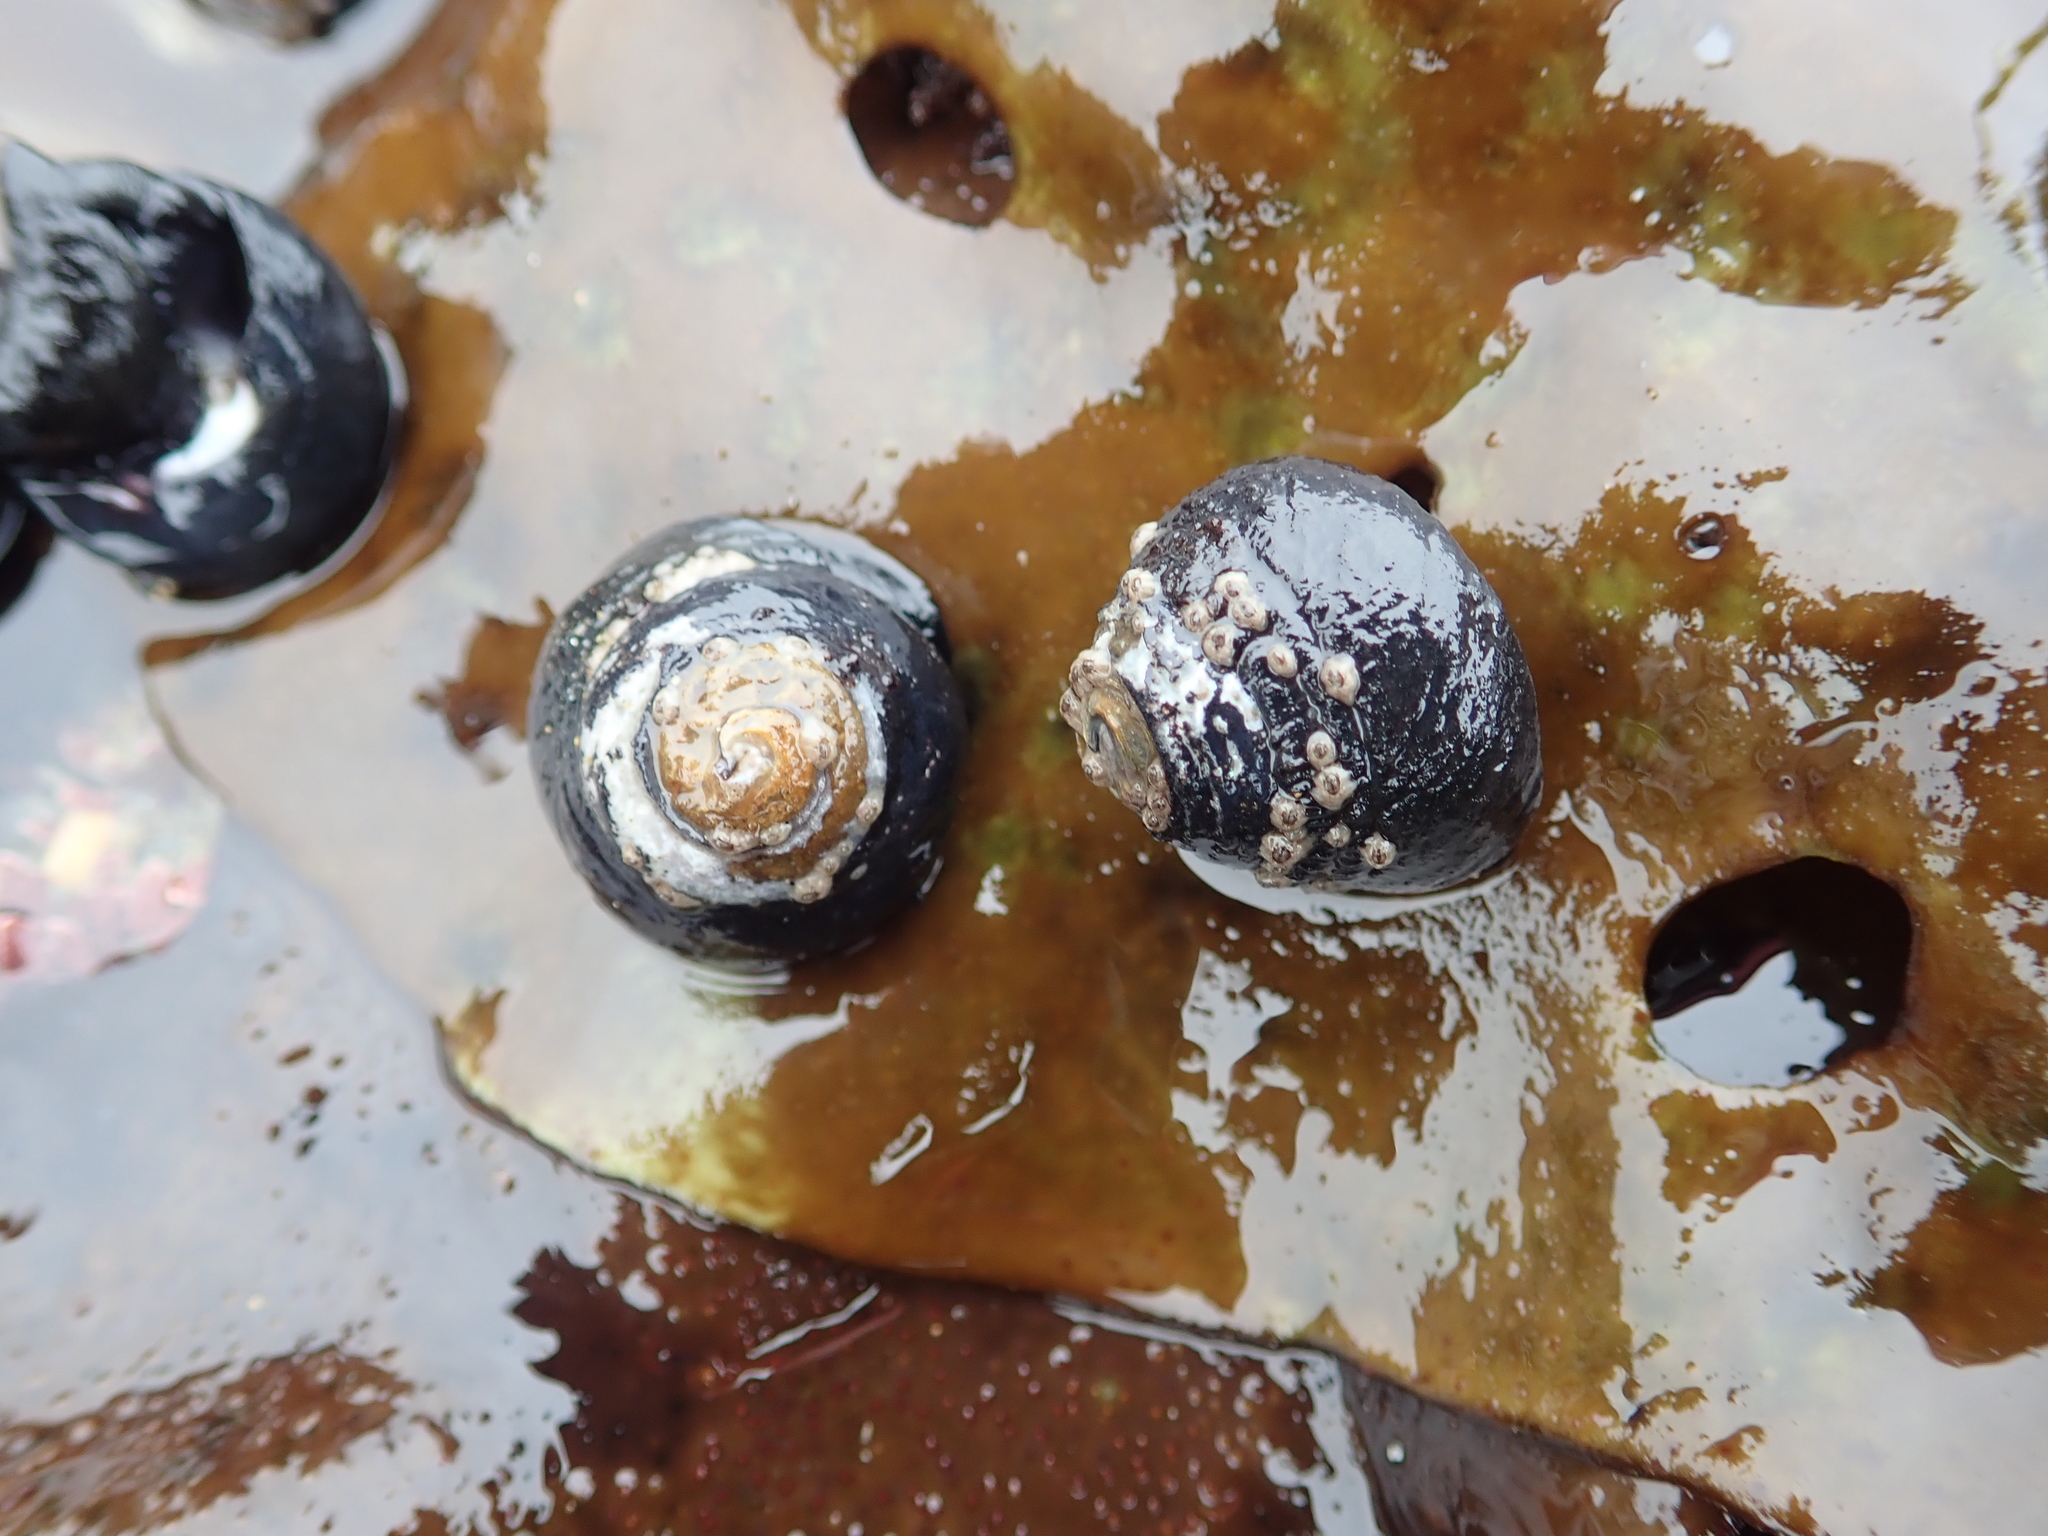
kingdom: Animalia
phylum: Mollusca
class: Gastropoda
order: Trochida
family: Tegulidae
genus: Tegula
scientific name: Tegula funebralis
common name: Black tegula
